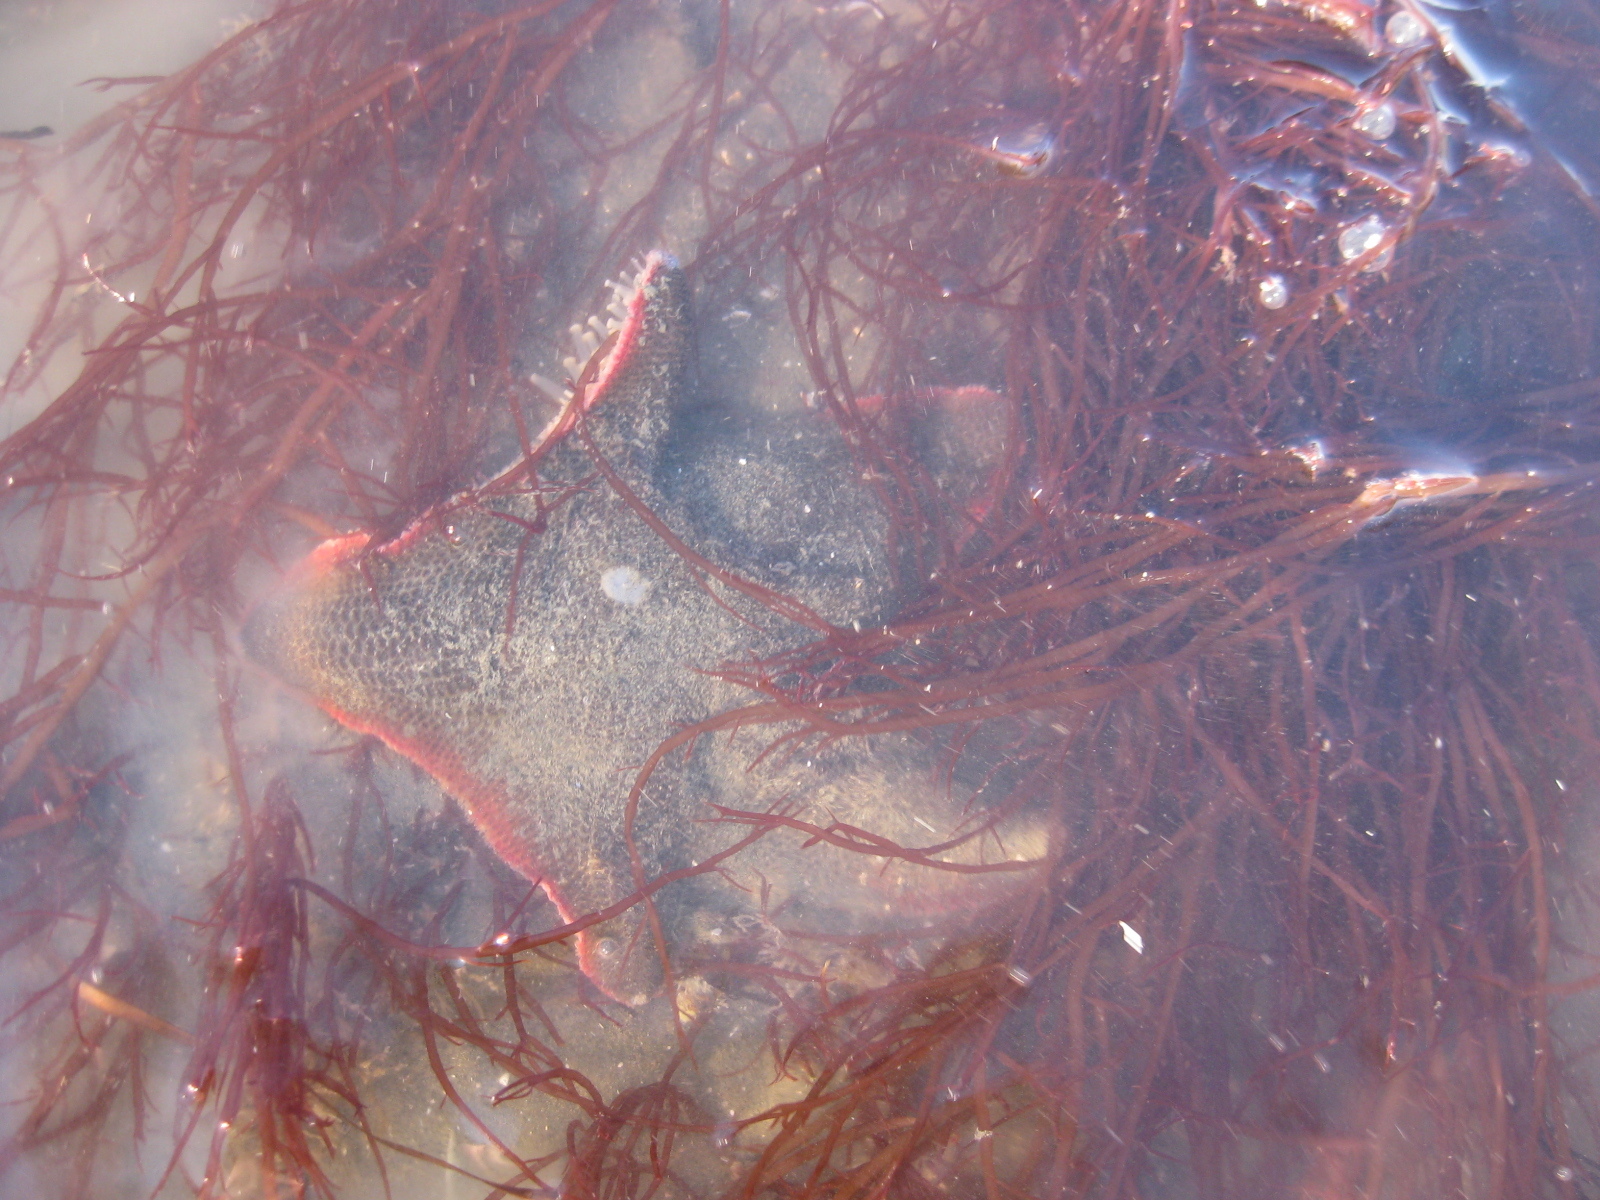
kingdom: Animalia
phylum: Echinodermata
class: Asteroidea
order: Valvatida
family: Asterinidae
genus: Patiriella
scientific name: Patiriella regularis
